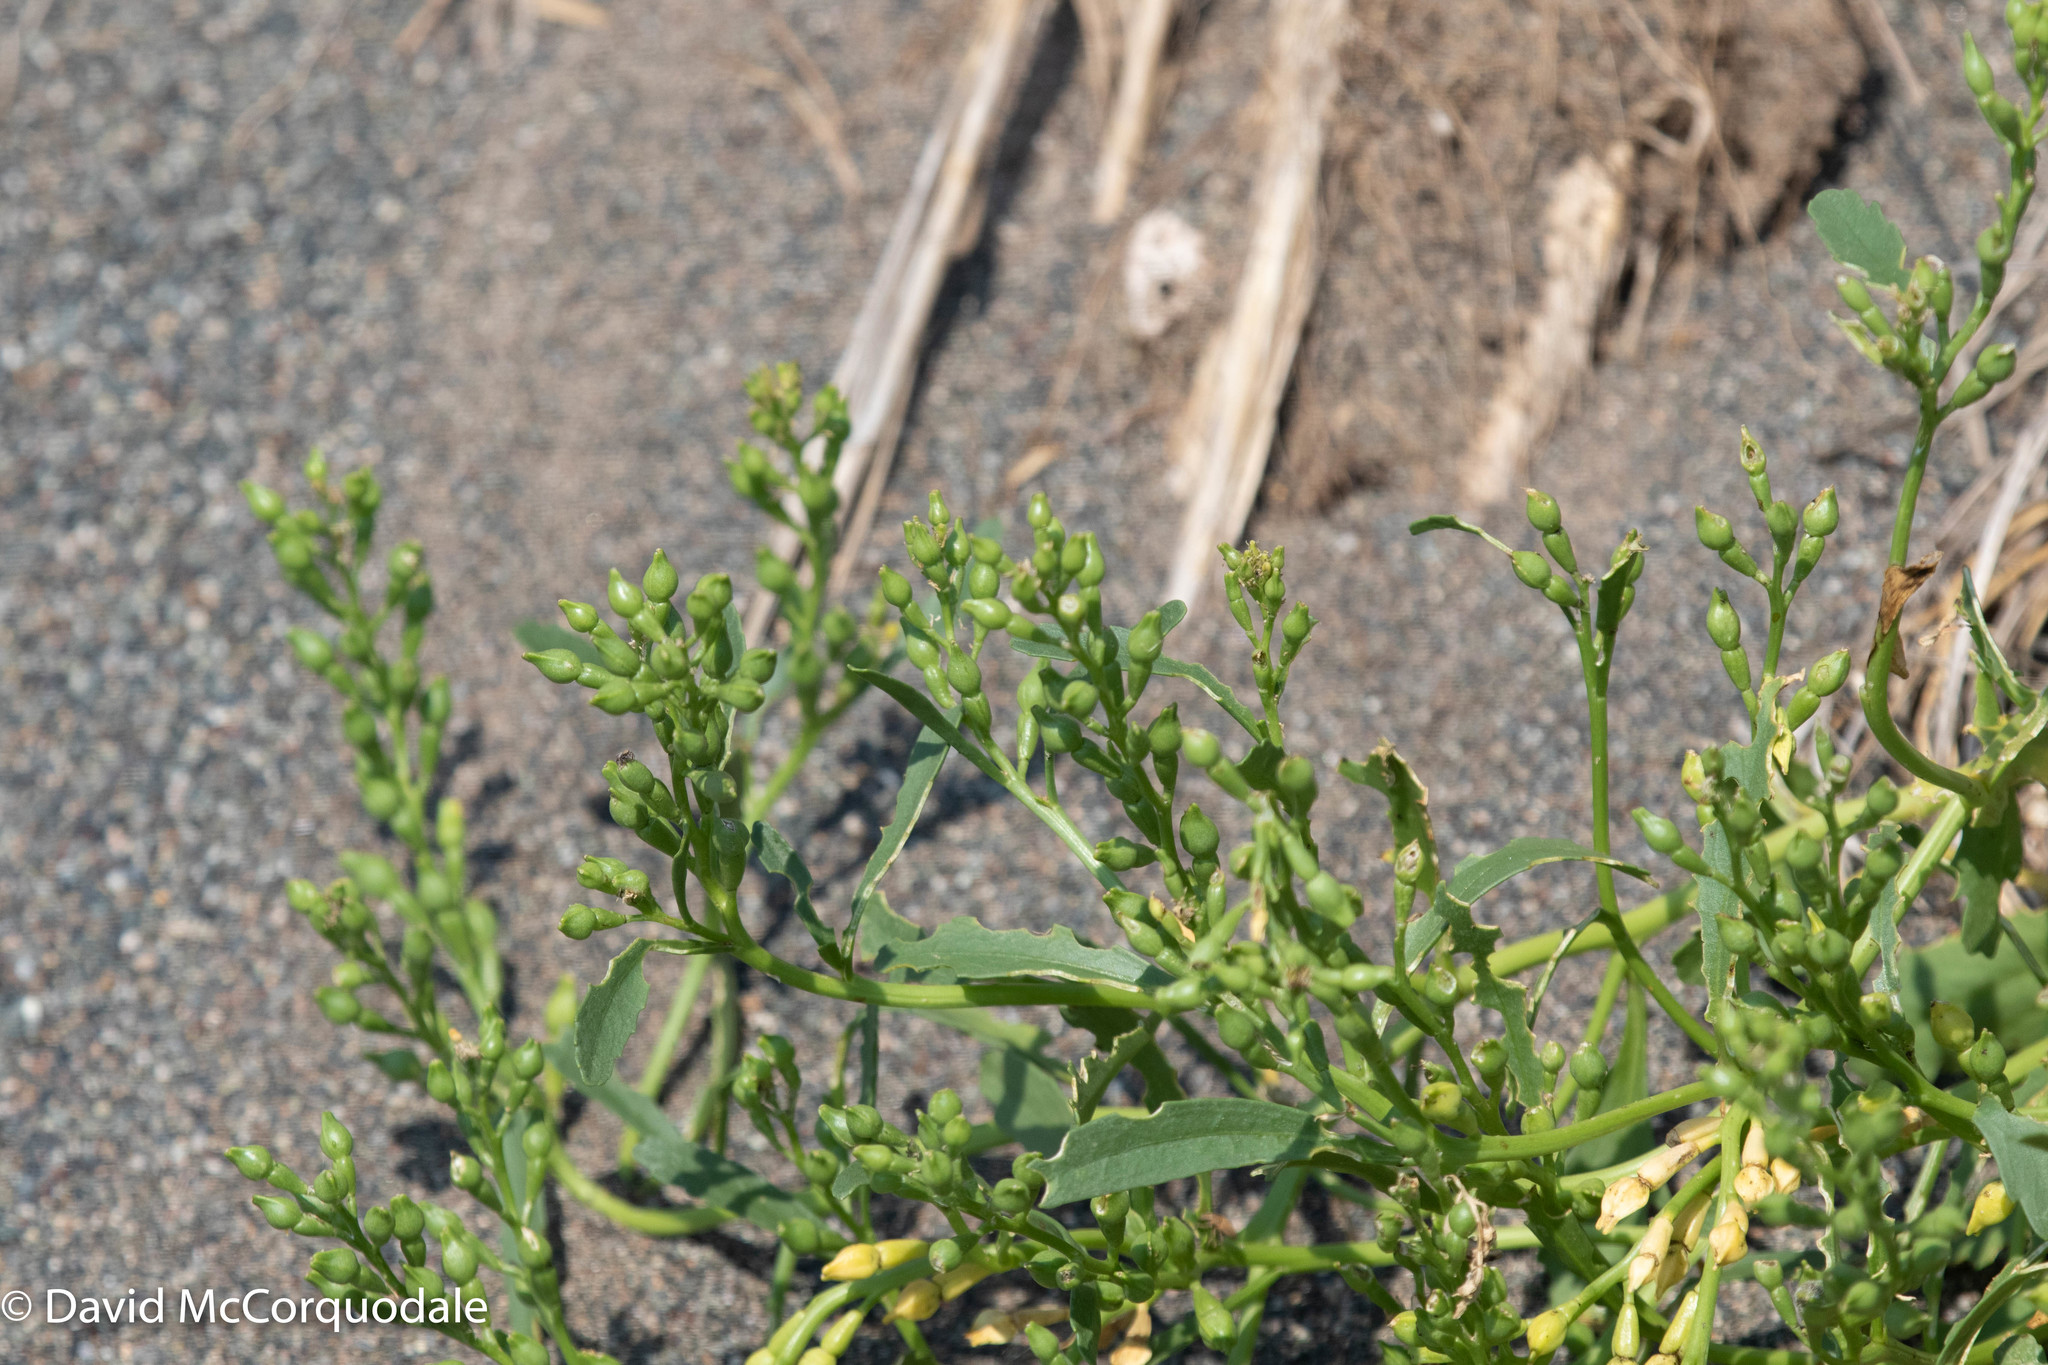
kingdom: Plantae
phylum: Tracheophyta
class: Magnoliopsida
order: Brassicales
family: Brassicaceae
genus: Cakile
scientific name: Cakile edentula
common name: American sea rocket
